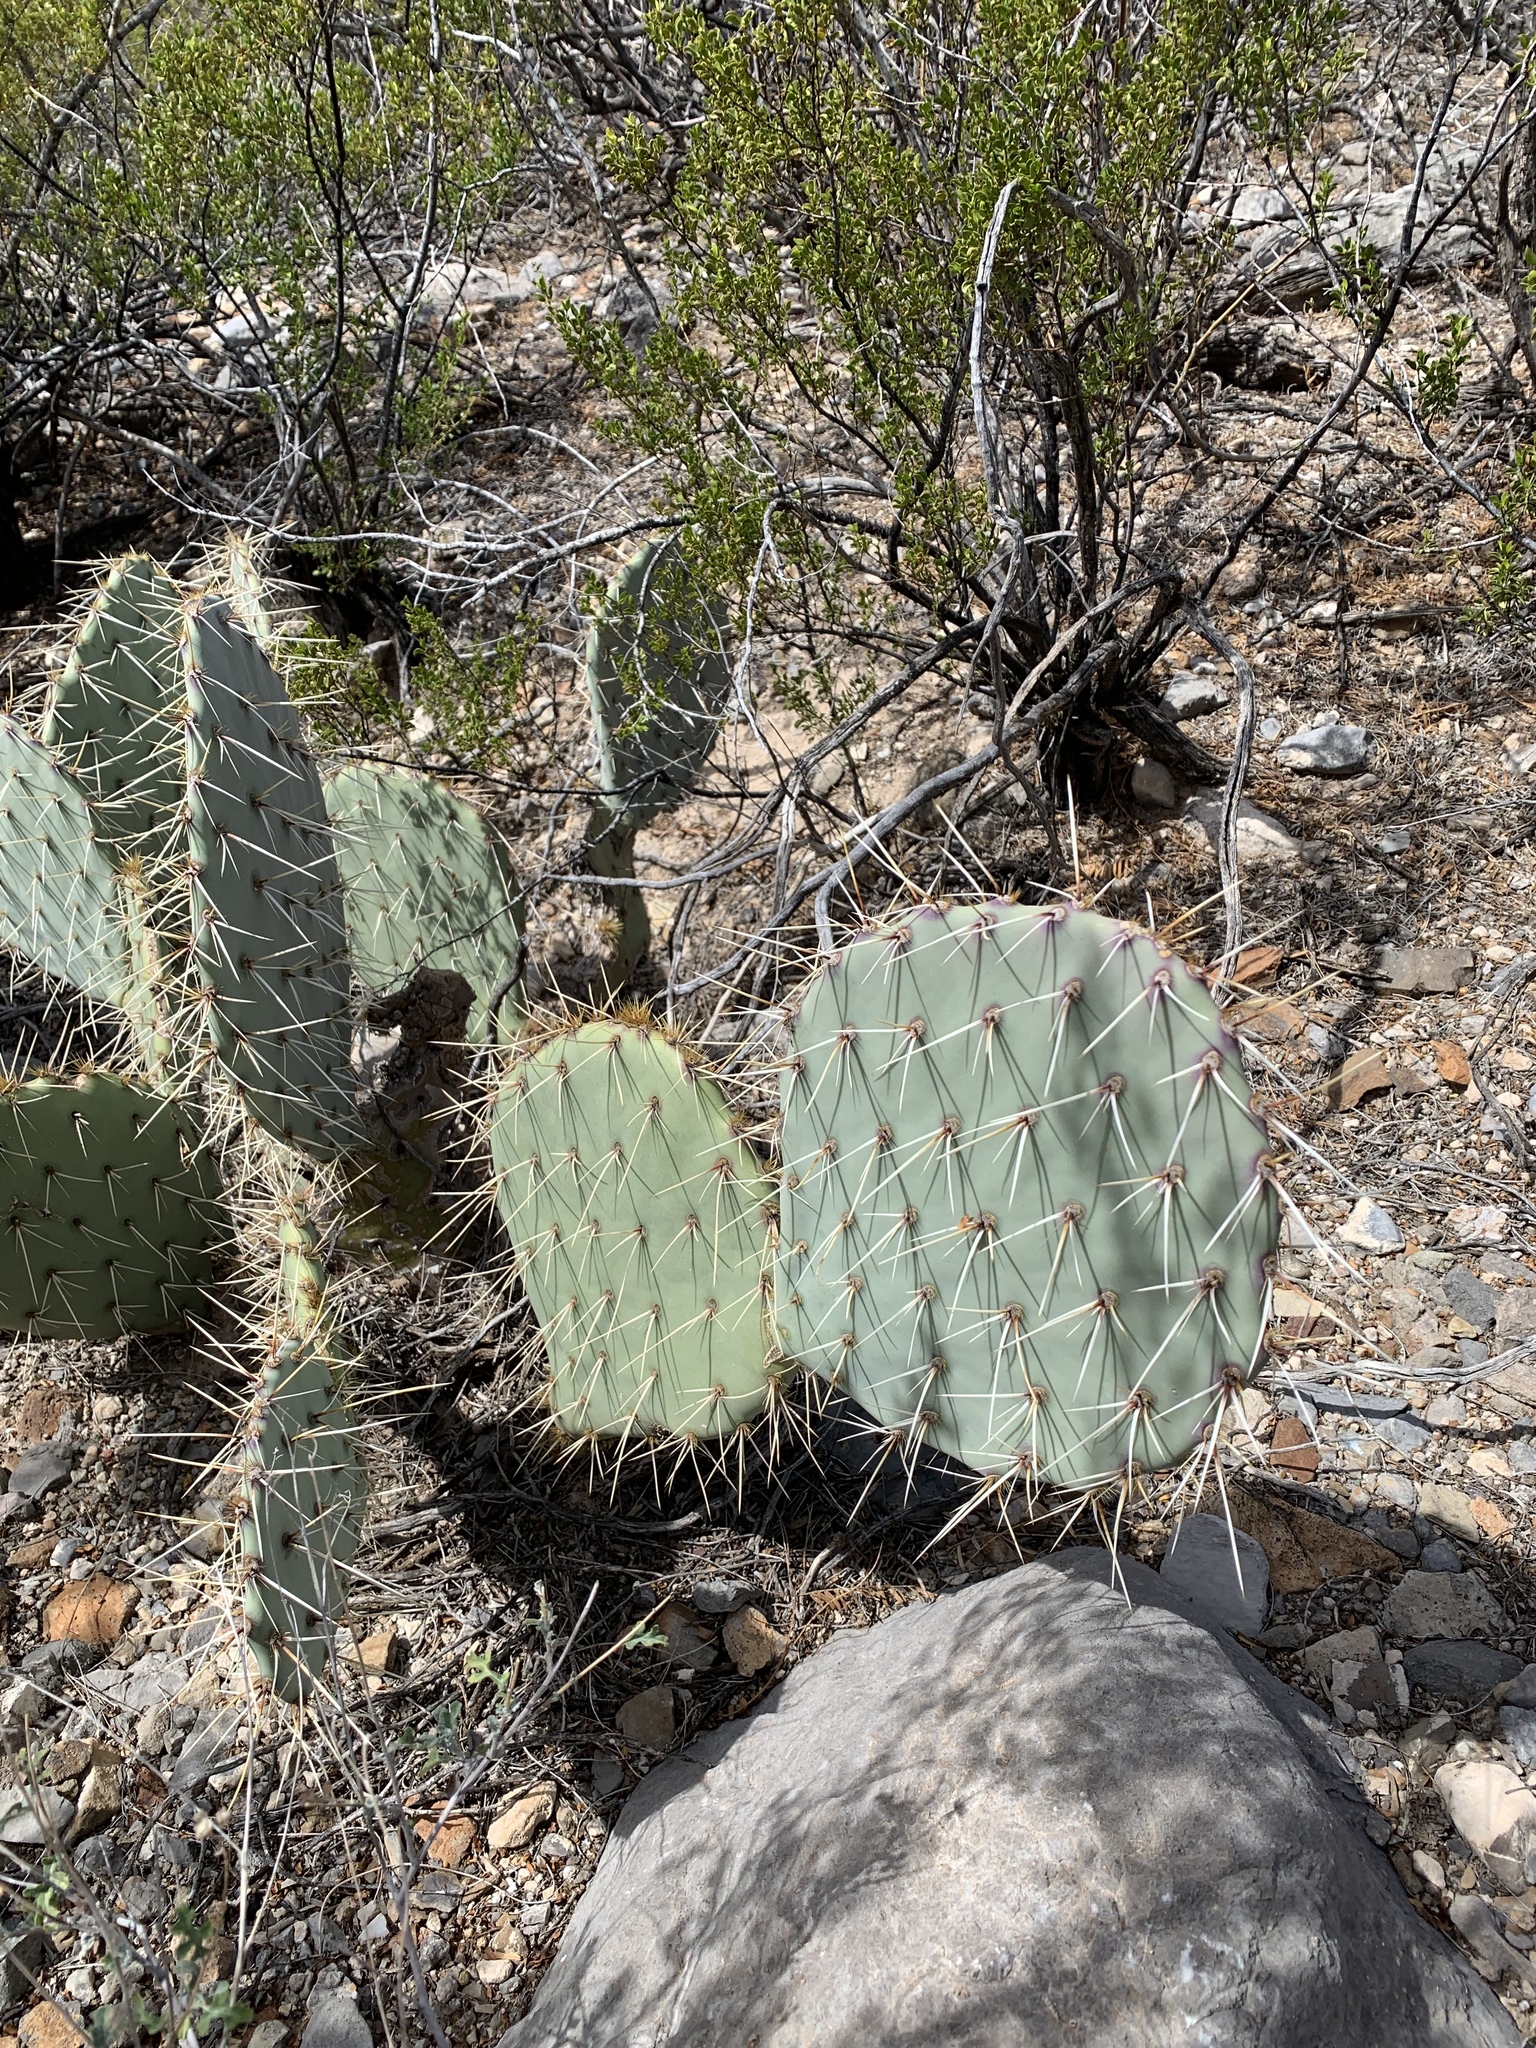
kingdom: Plantae
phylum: Tracheophyta
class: Magnoliopsida
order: Caryophyllales
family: Cactaceae
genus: Opuntia
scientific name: Opuntia engelmannii
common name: Cactus-apple
